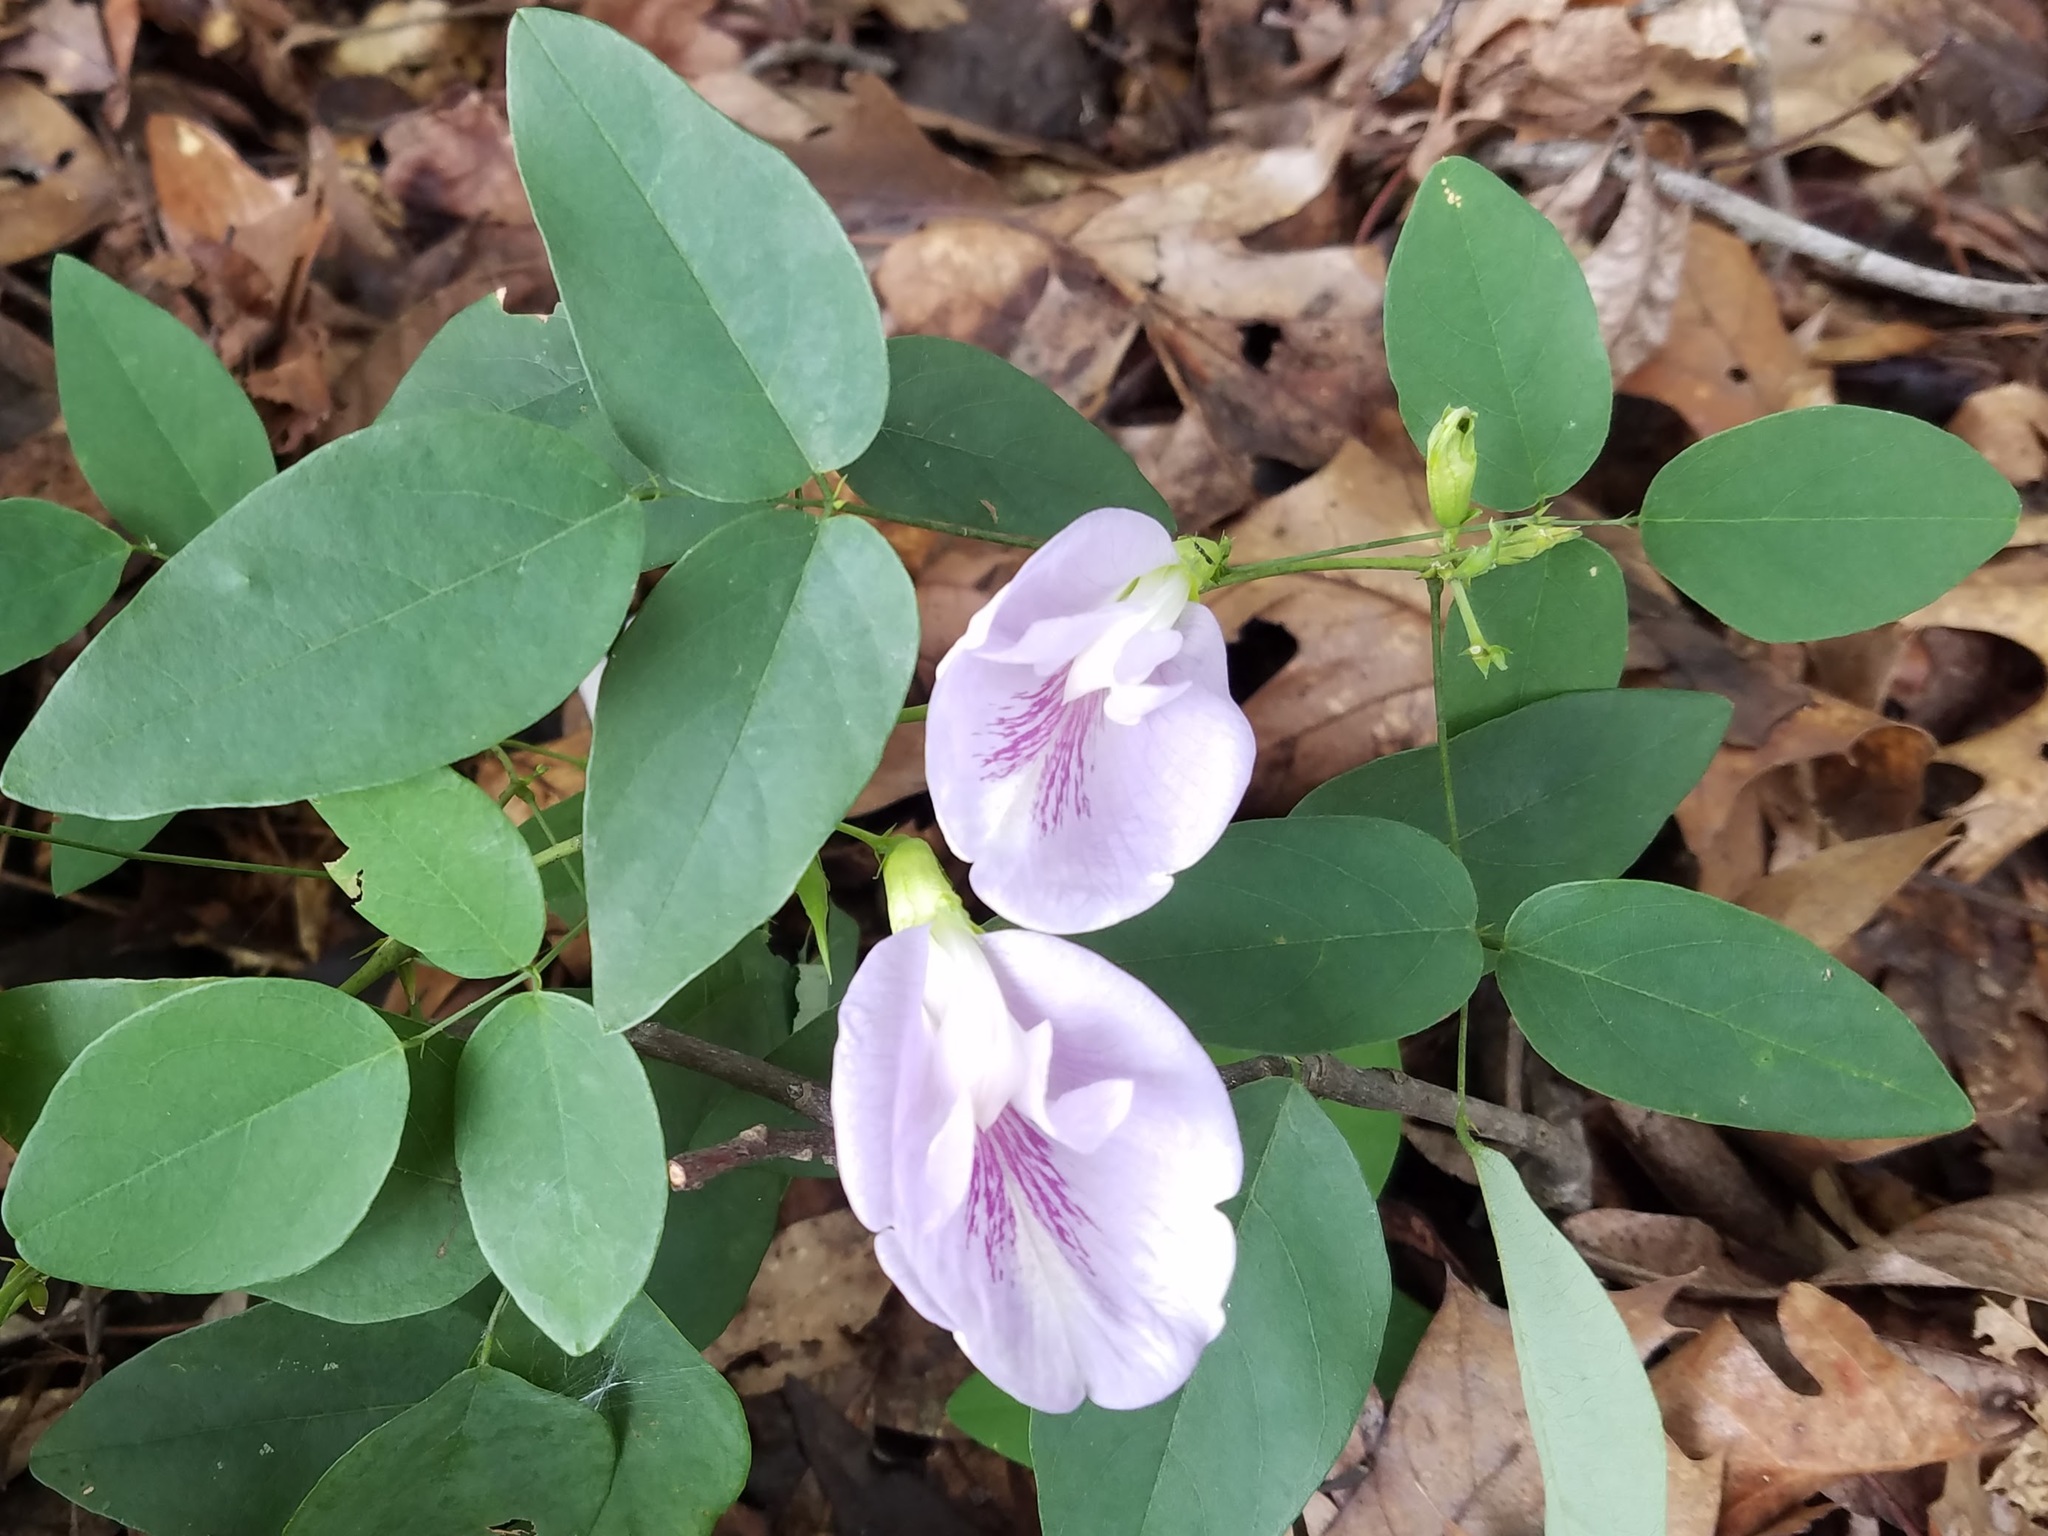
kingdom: Plantae
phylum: Tracheophyta
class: Magnoliopsida
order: Fabales
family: Fabaceae
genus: Clitoria
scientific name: Clitoria mariana
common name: Butterfly-pea
